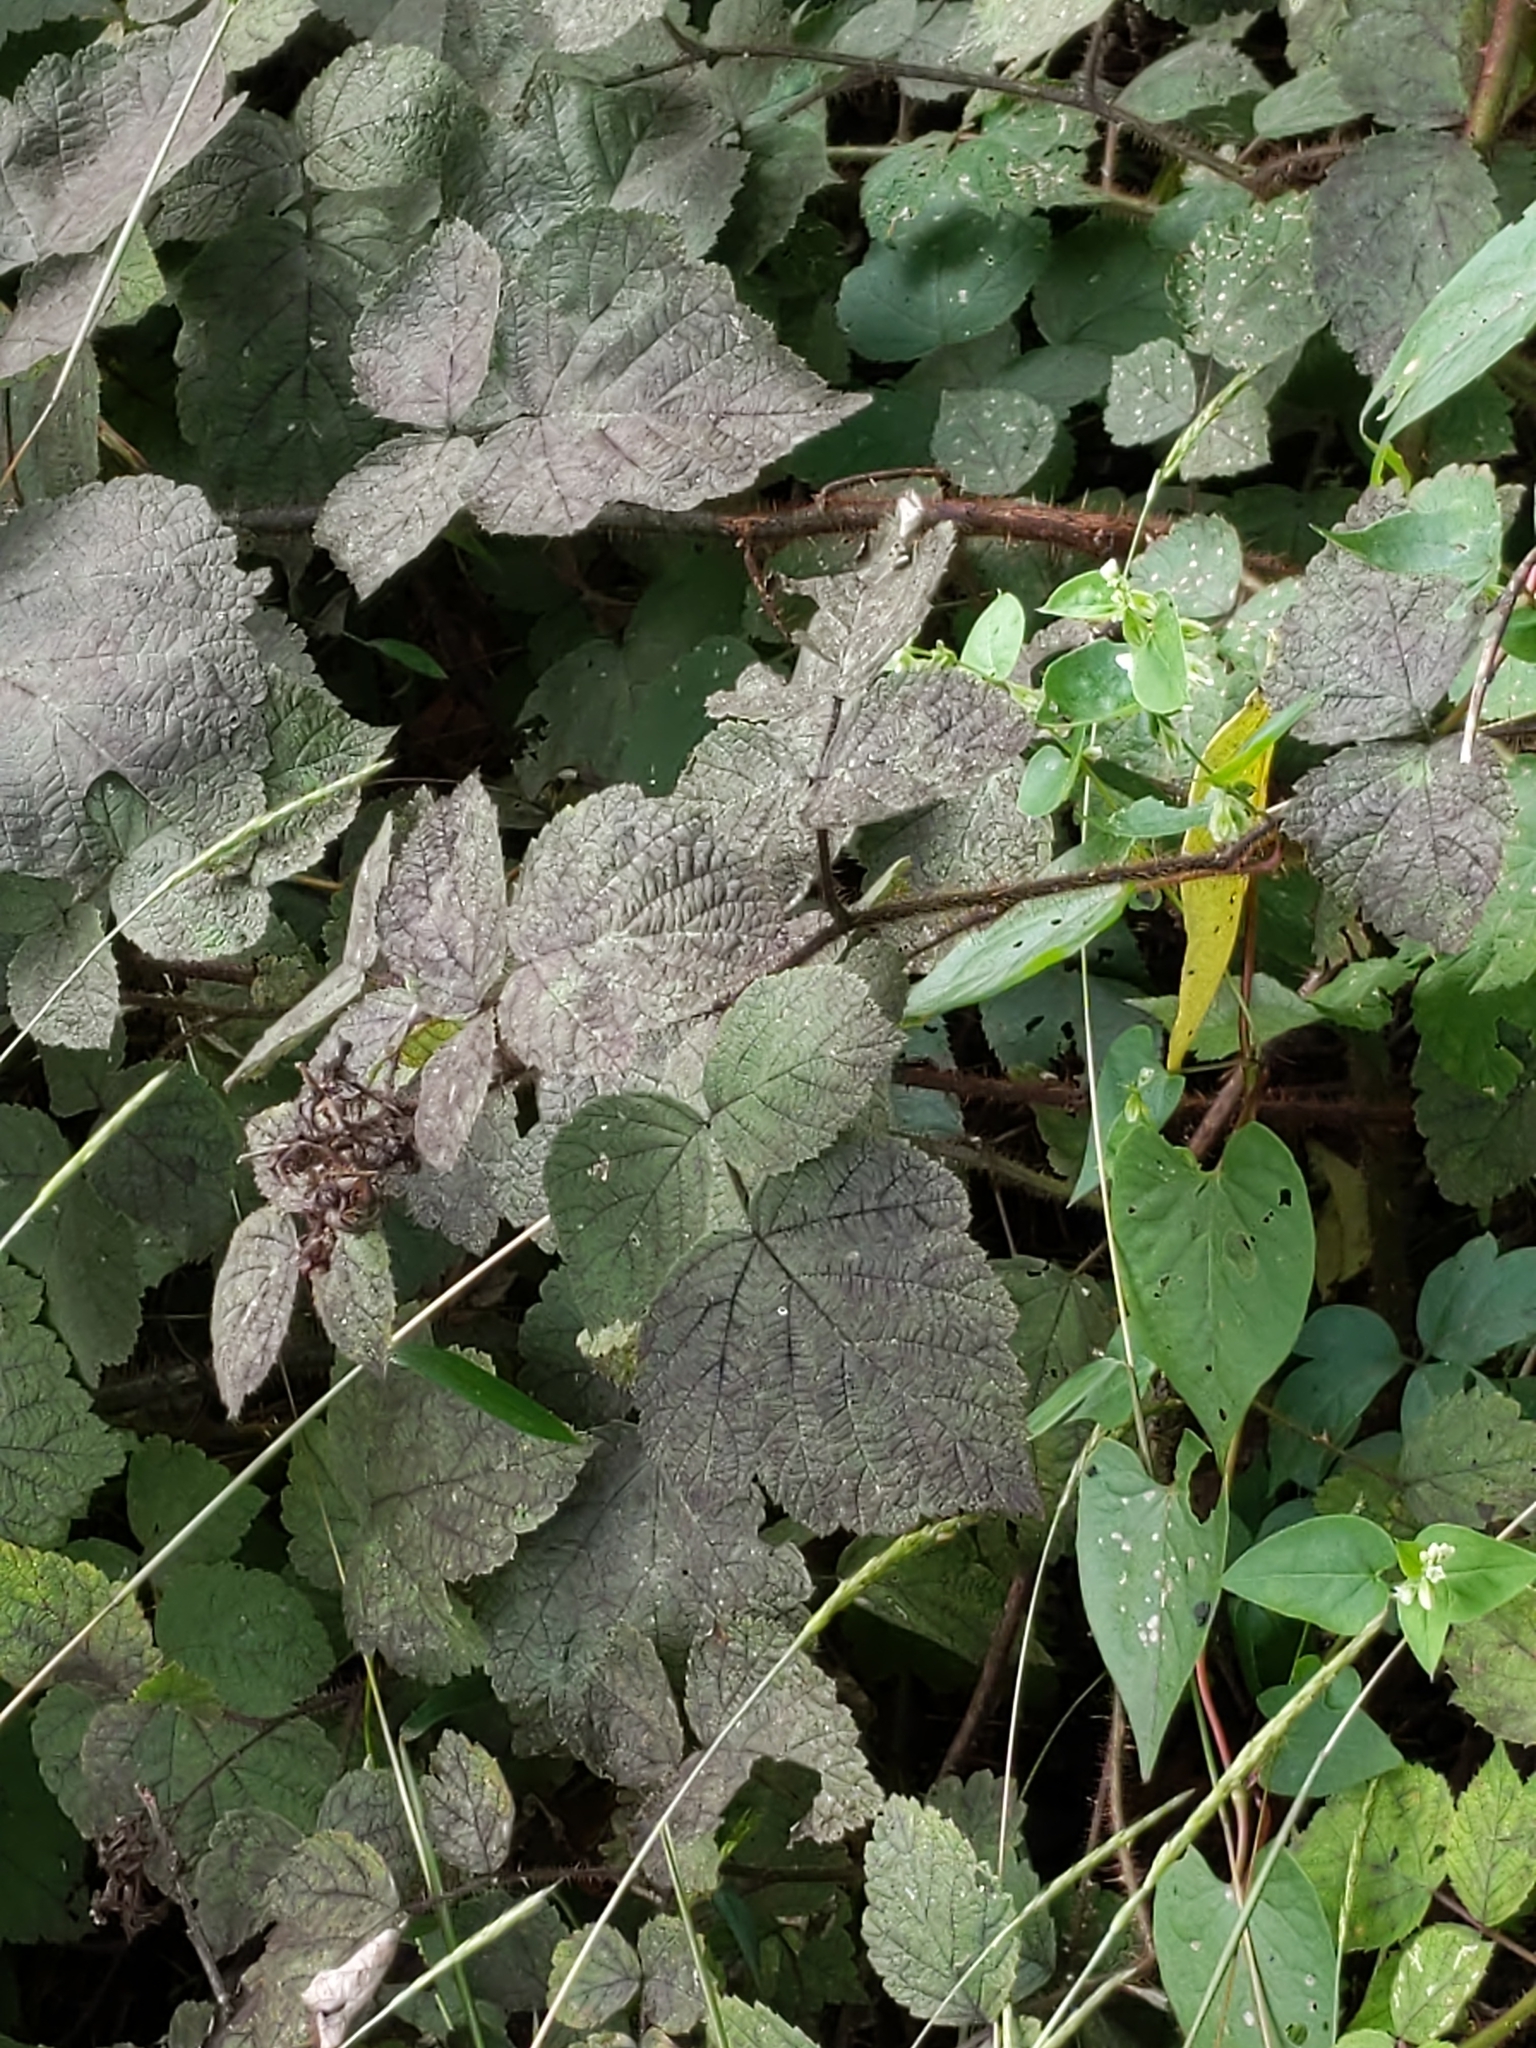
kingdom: Plantae
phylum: Tracheophyta
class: Magnoliopsida
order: Rosales
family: Rosaceae
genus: Rubus
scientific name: Rubus phoenicolasius
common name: Japanese wineberry
